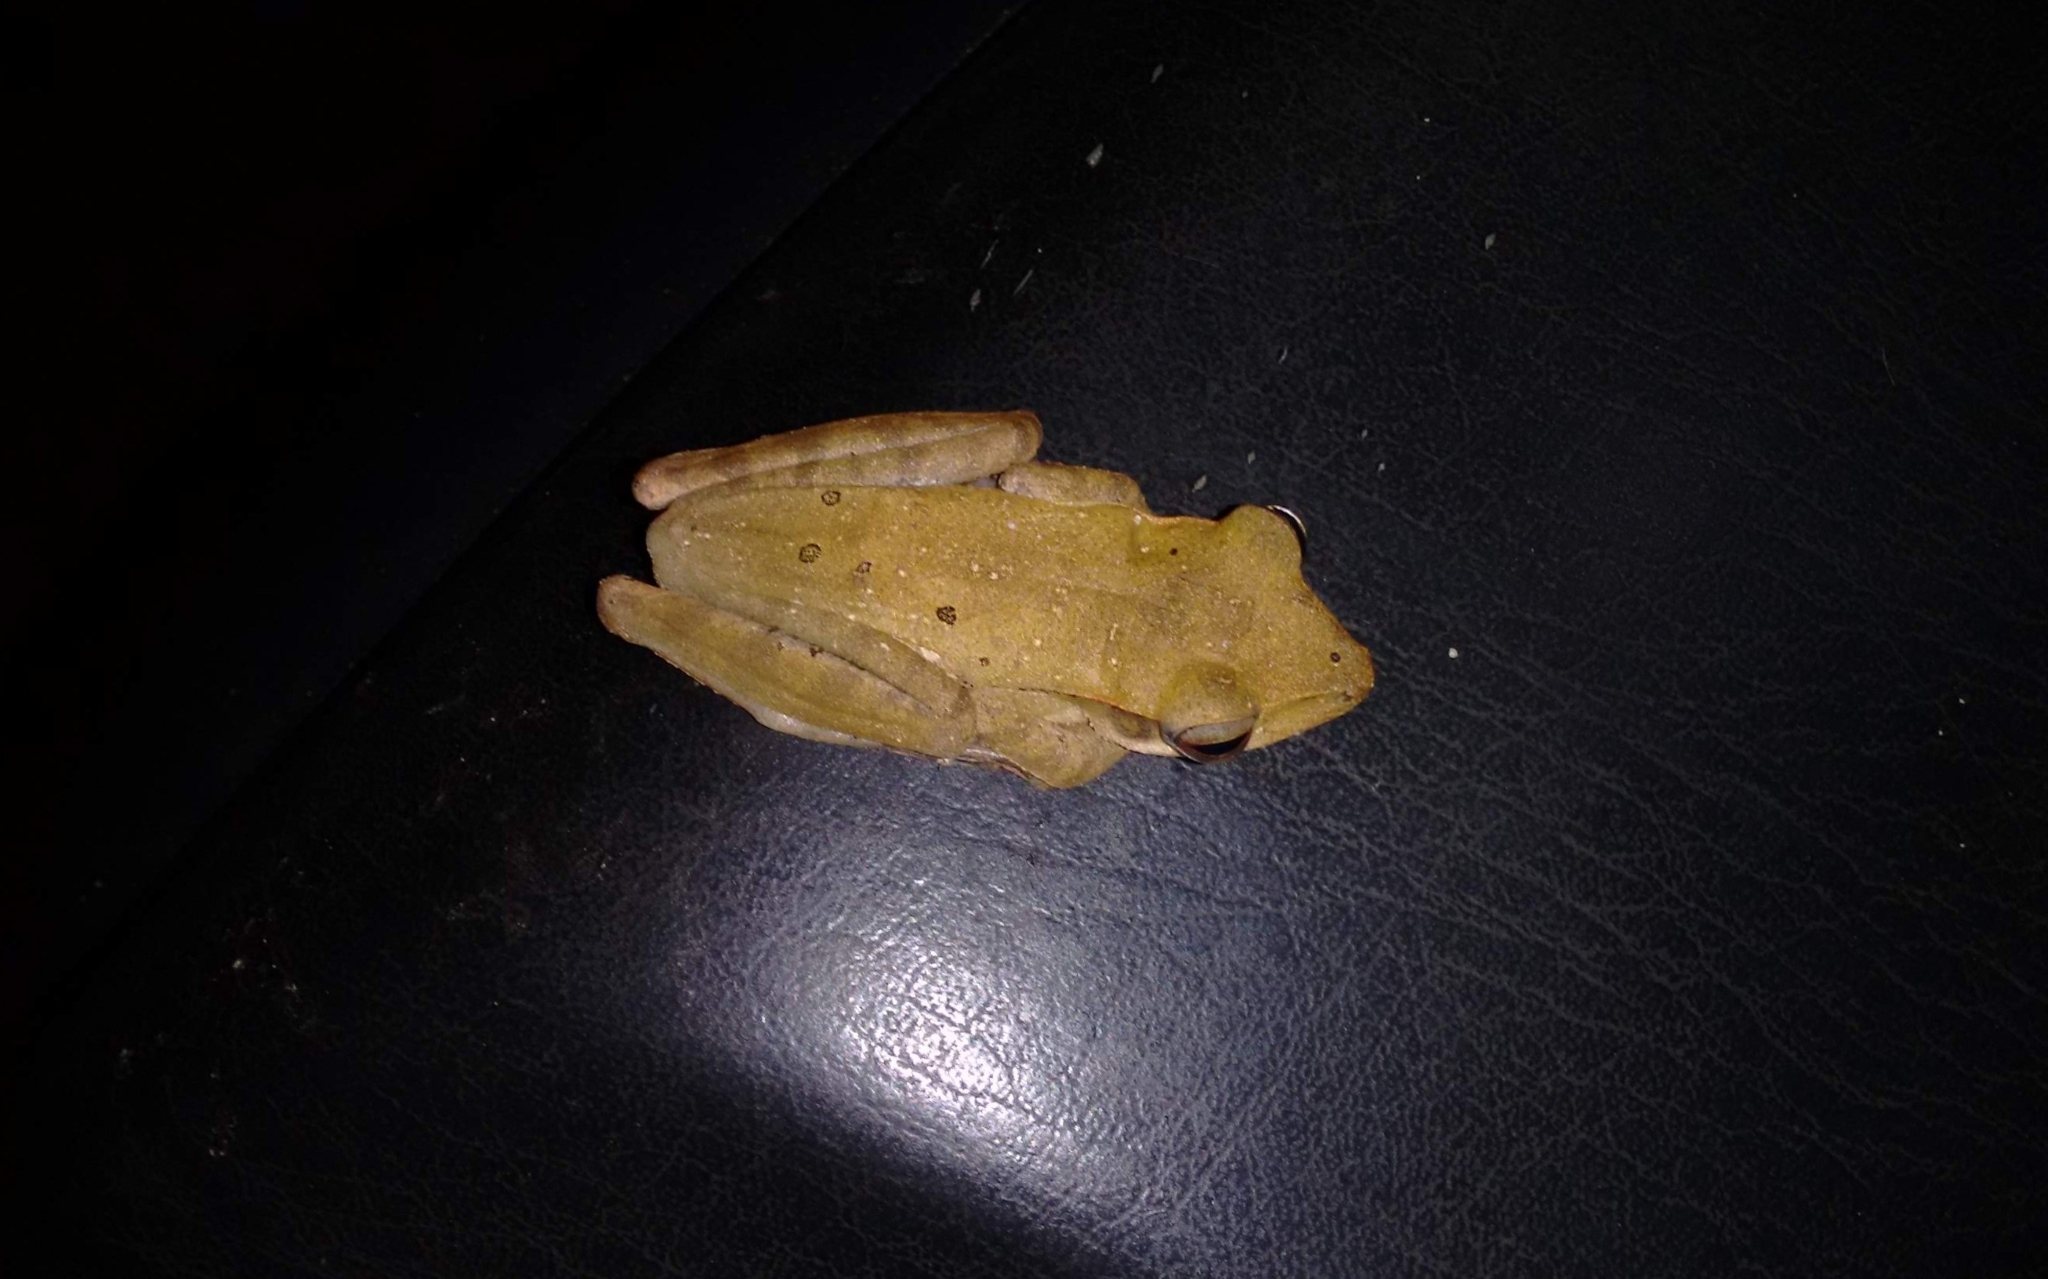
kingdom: Animalia
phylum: Chordata
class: Amphibia
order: Anura
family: Rhacophoridae
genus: Polypedates
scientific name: Polypedates occidentalis
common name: Charpa tree frog
